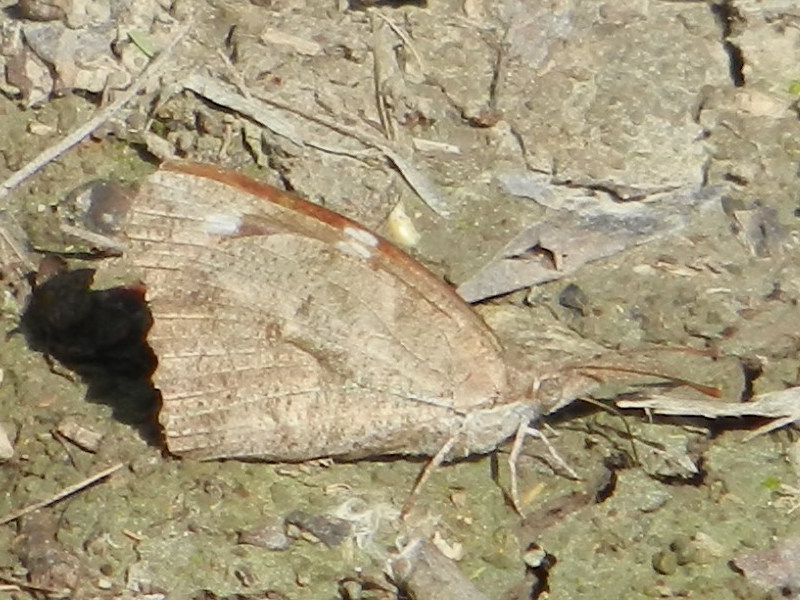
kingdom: Animalia
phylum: Arthropoda
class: Insecta
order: Lepidoptera
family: Nymphalidae
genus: Libytheana
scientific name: Libytheana carinenta
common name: American snout
